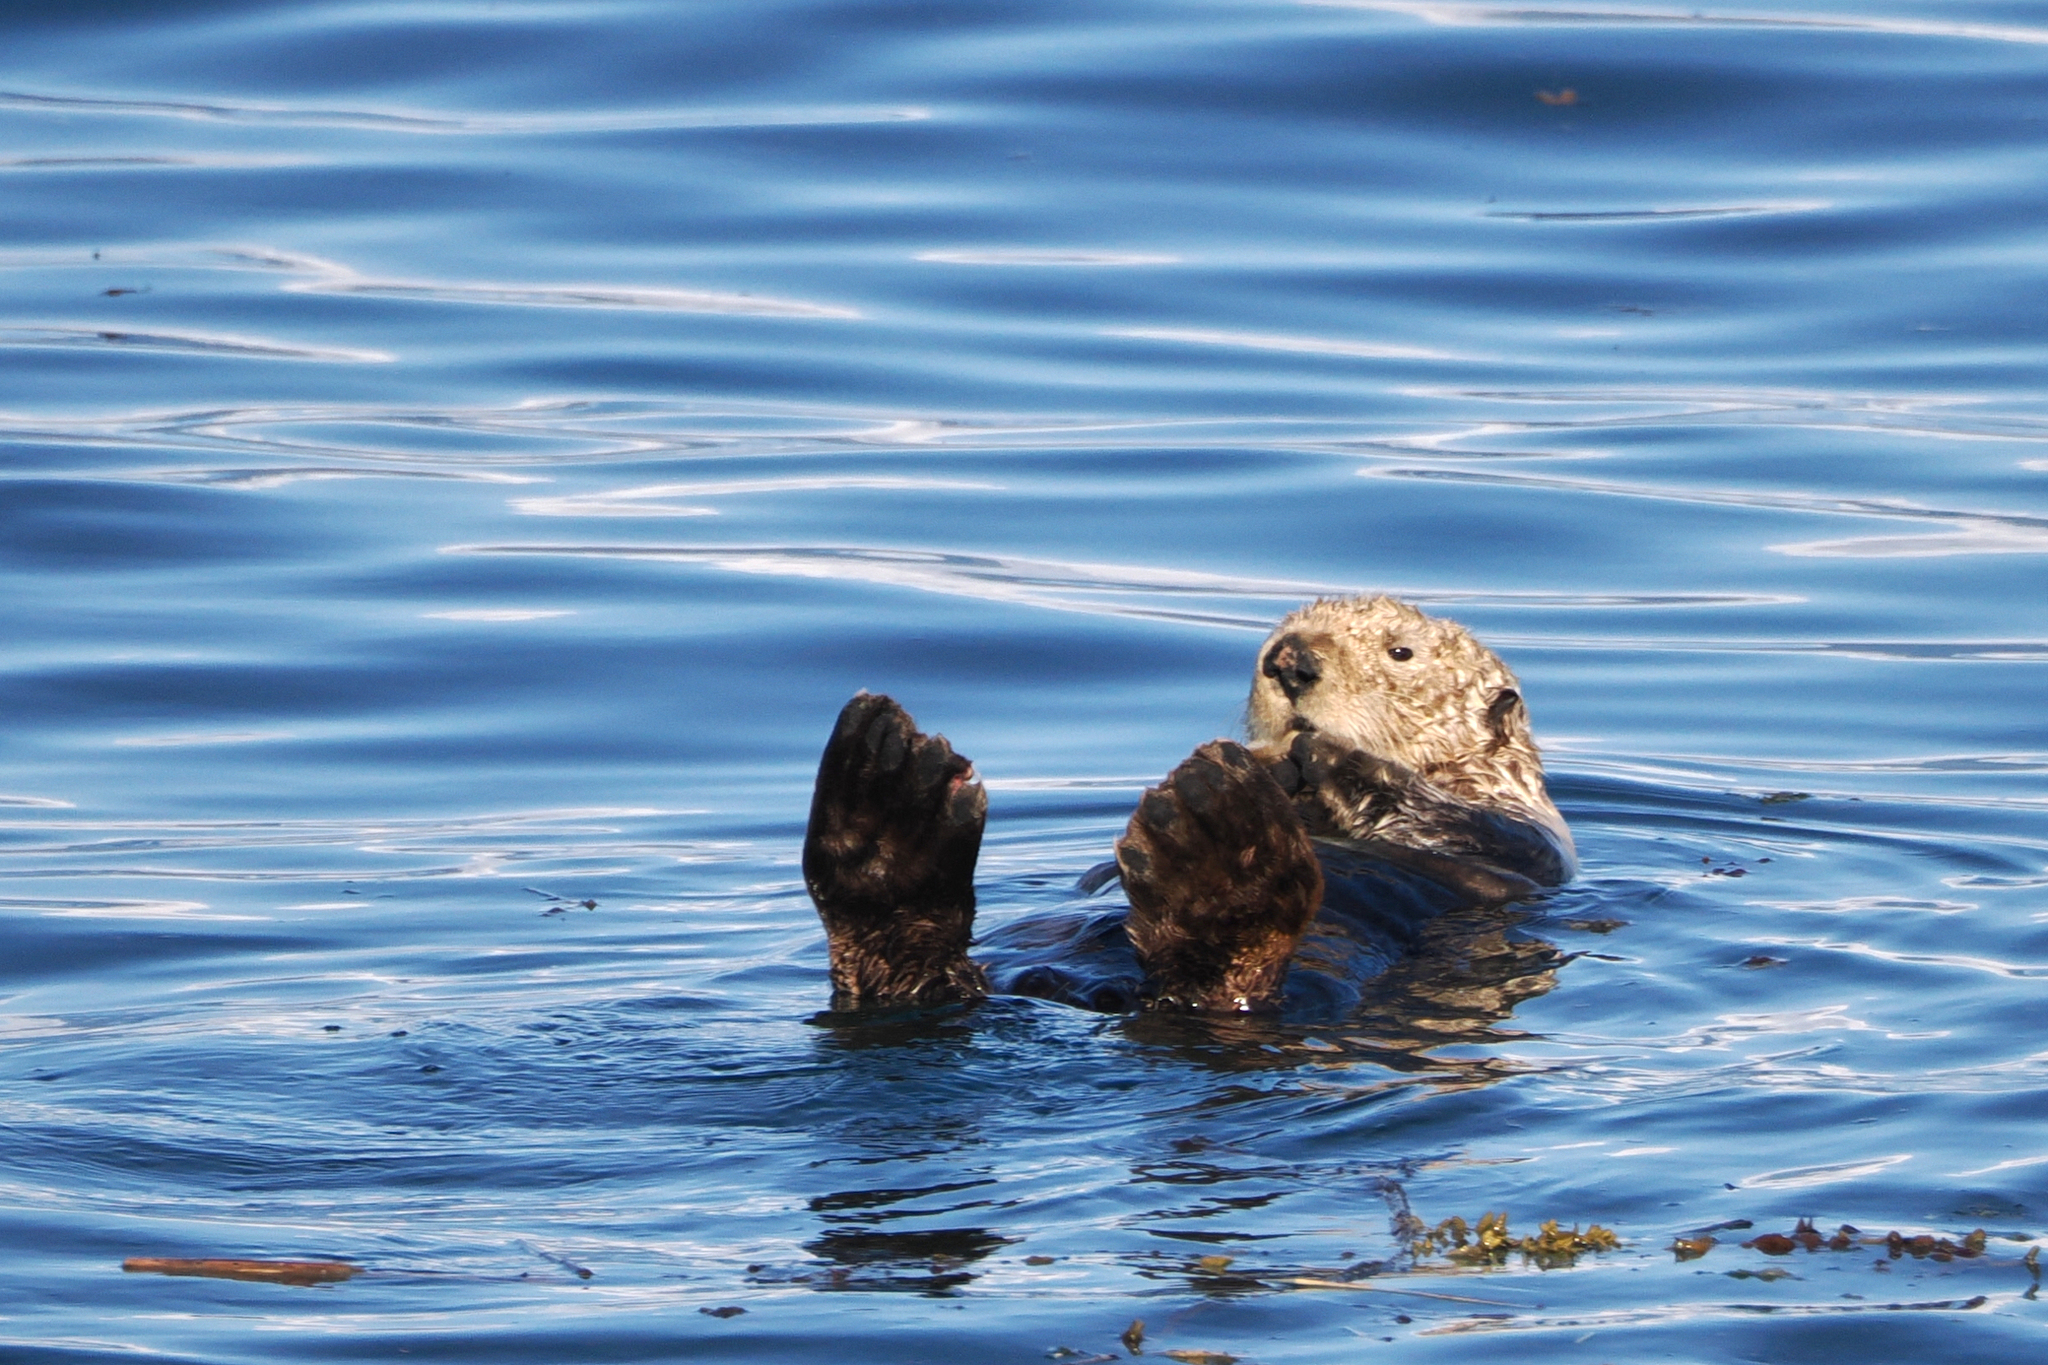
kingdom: Animalia
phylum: Chordata
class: Mammalia
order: Carnivora
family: Mustelidae
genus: Enhydra
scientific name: Enhydra lutris
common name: Sea otter
